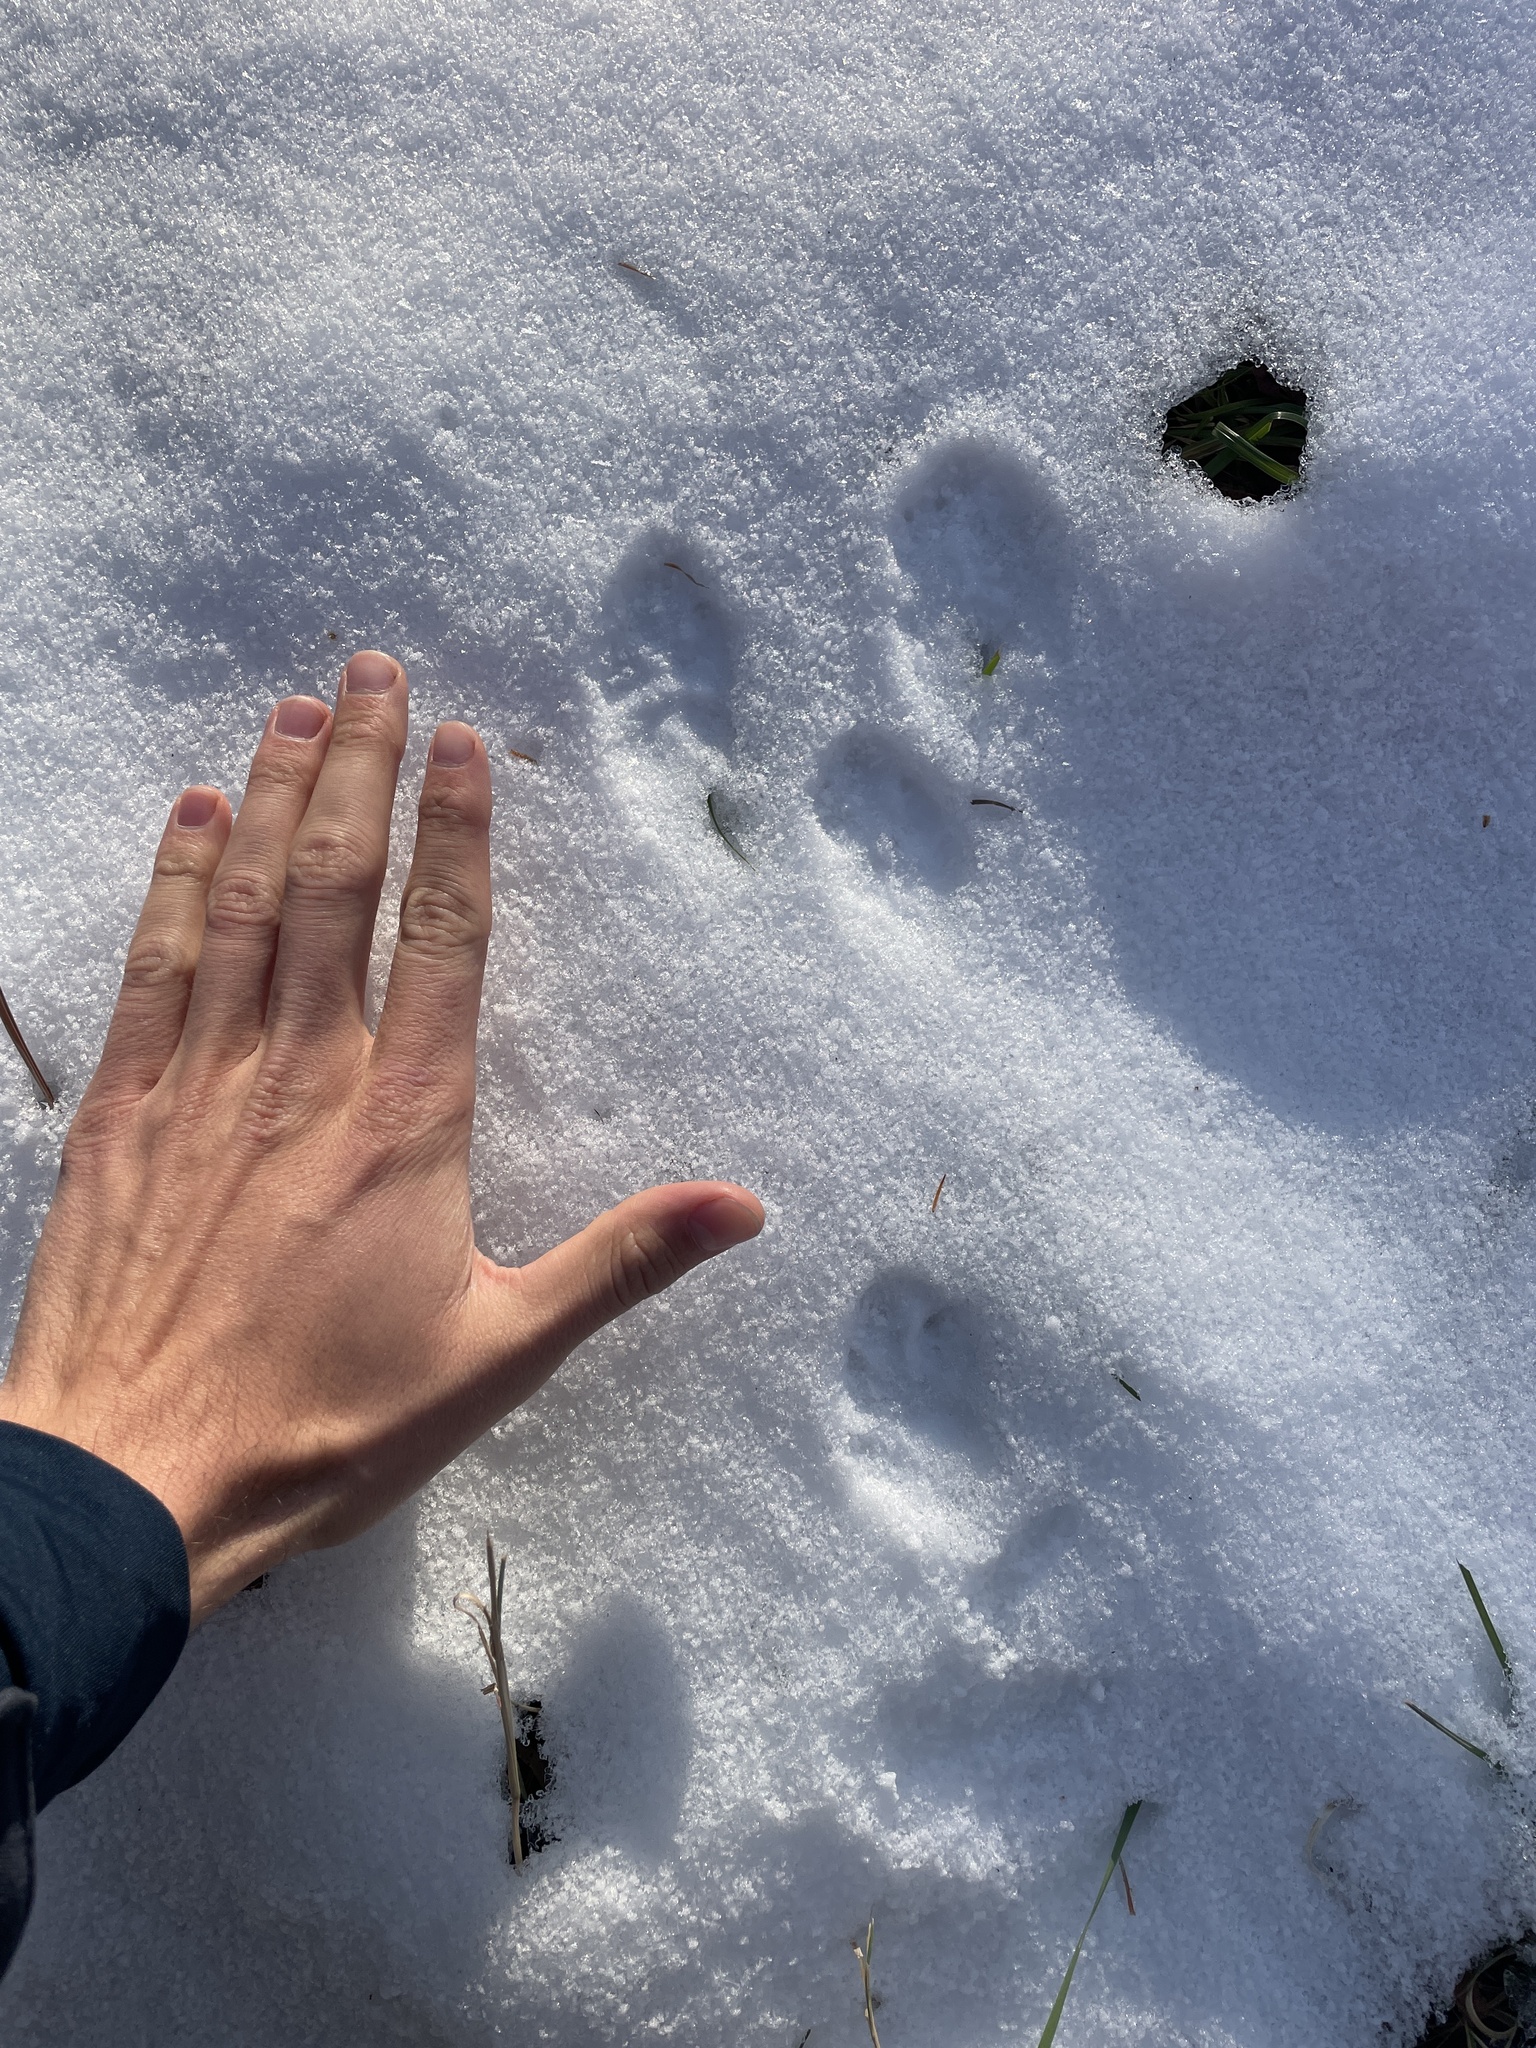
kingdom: Animalia
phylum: Chordata
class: Mammalia
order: Lagomorpha
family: Leporidae
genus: Sylvilagus
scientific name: Sylvilagus floridanus
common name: Eastern cottontail
